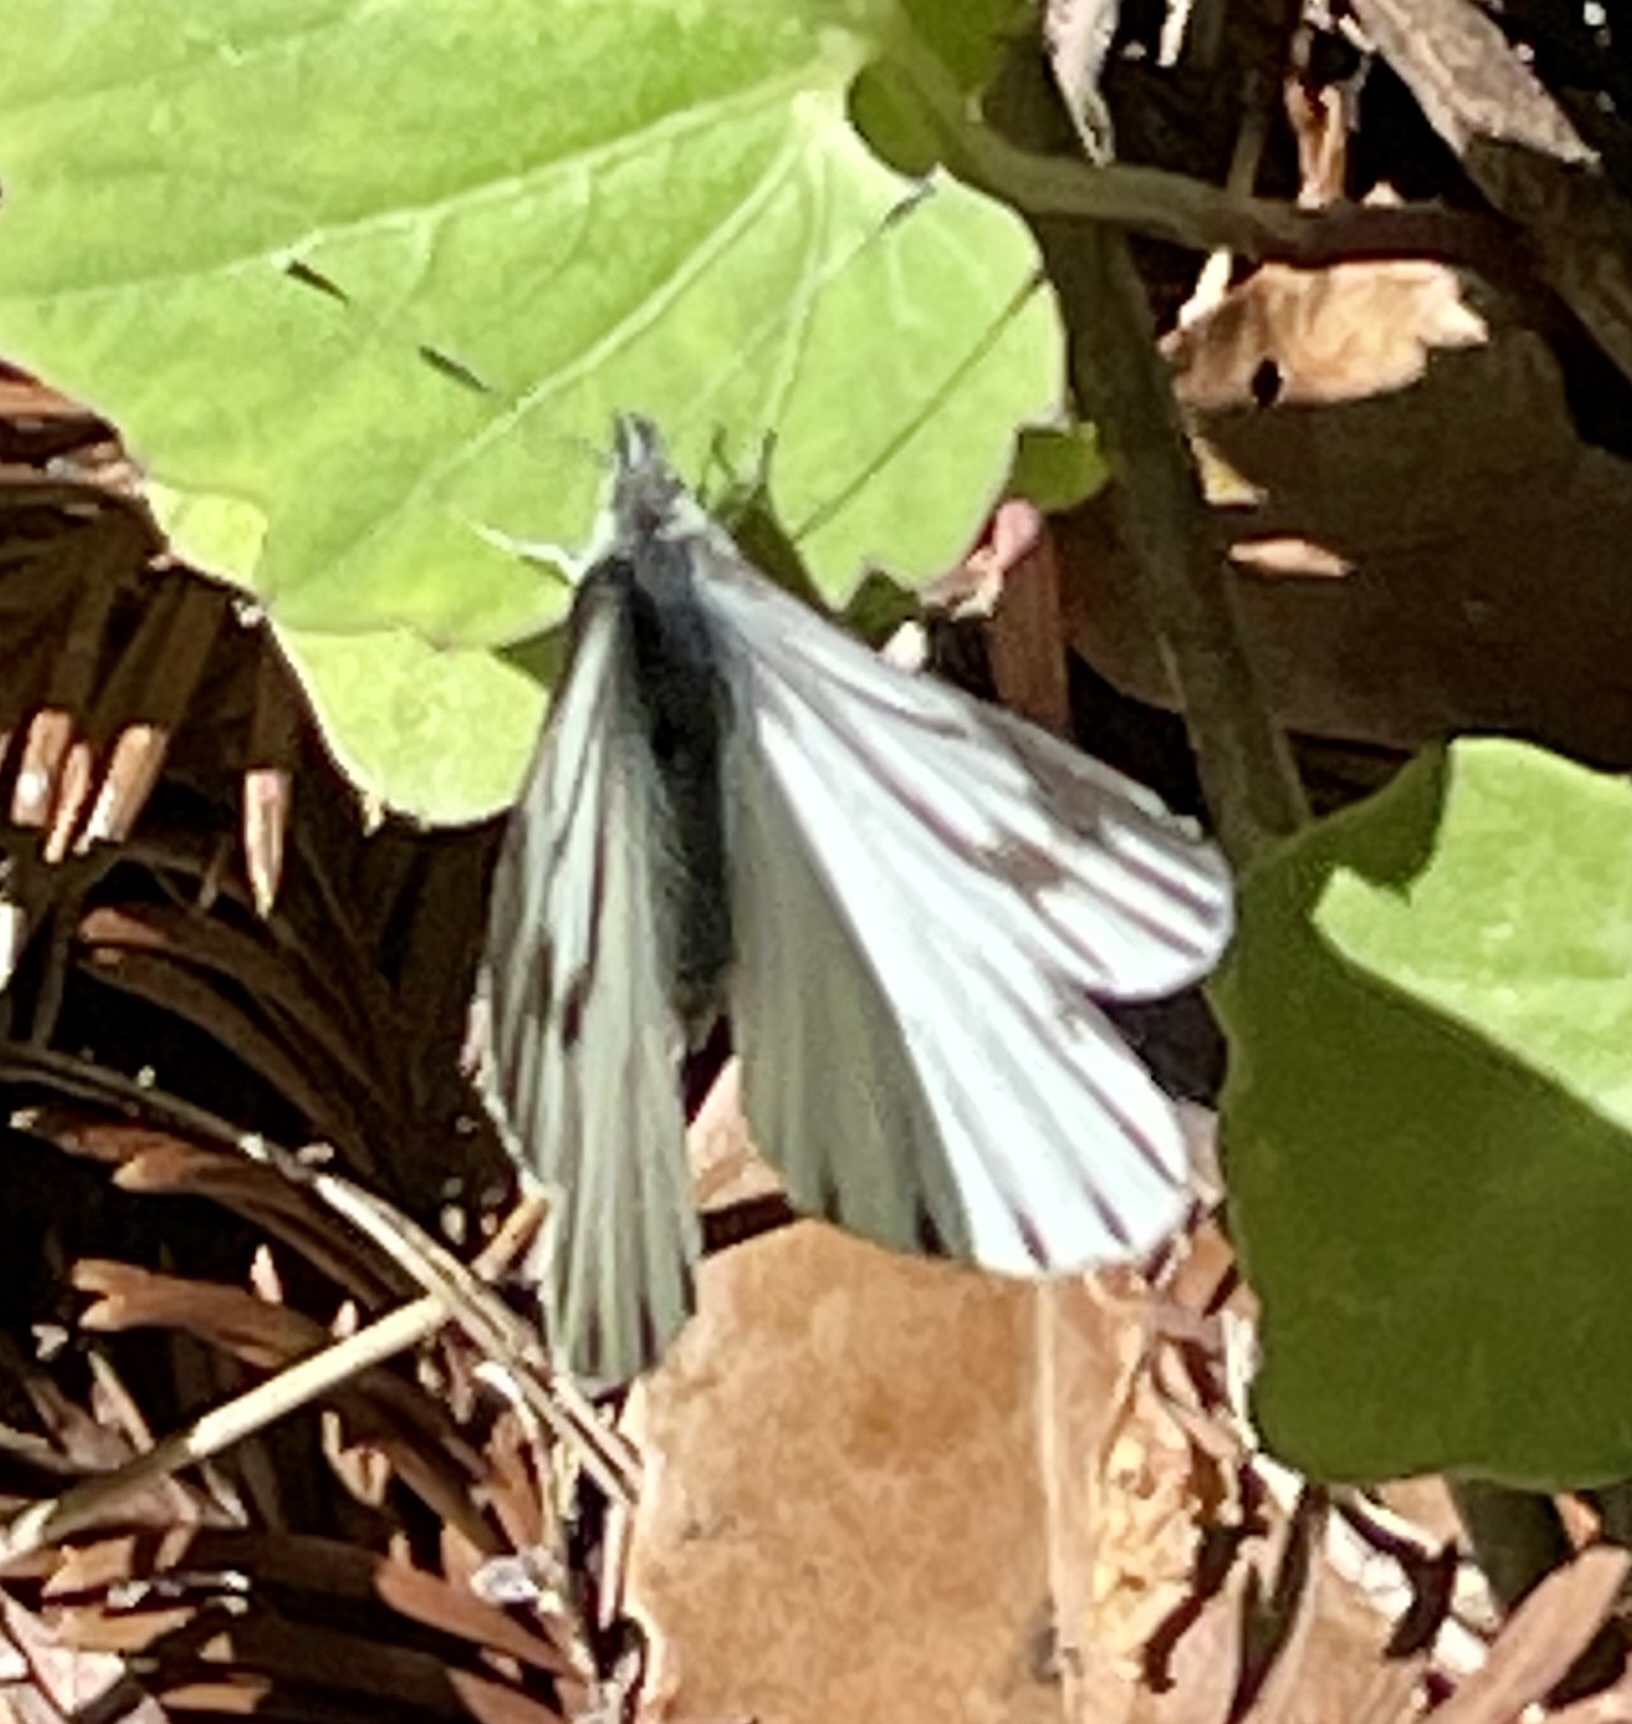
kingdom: Animalia
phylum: Arthropoda
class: Insecta
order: Lepidoptera
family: Pieridae
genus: Pieris
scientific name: Pieris marginalis
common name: Margined white
